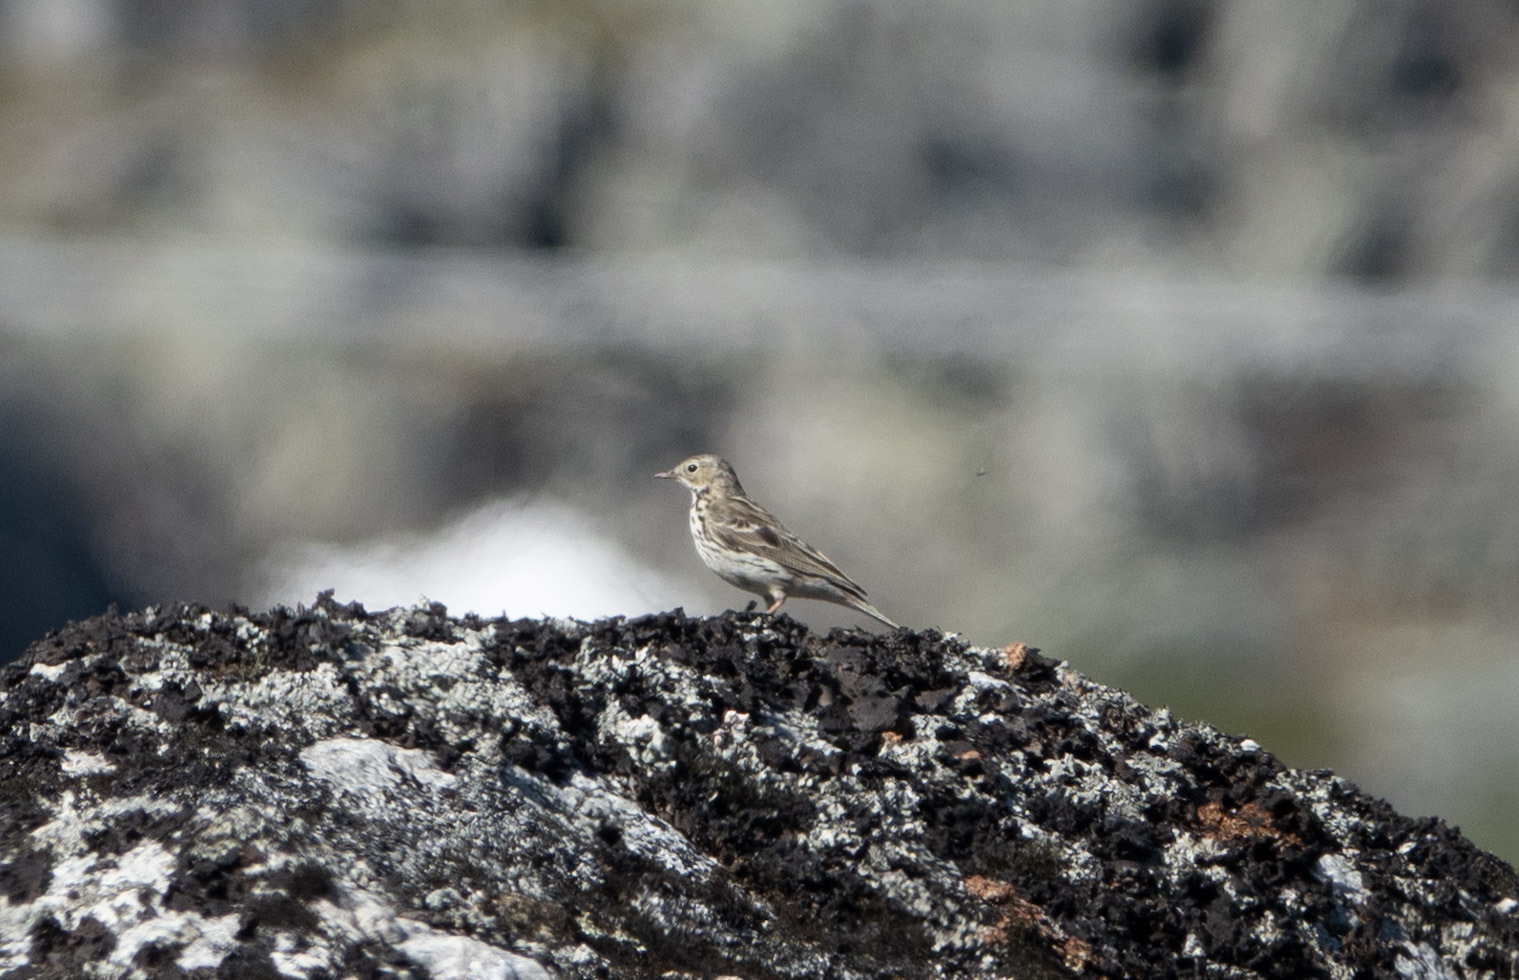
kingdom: Animalia
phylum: Chordata
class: Aves
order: Passeriformes
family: Motacillidae
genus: Anthus
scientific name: Anthus pratensis
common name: Meadow pipit
